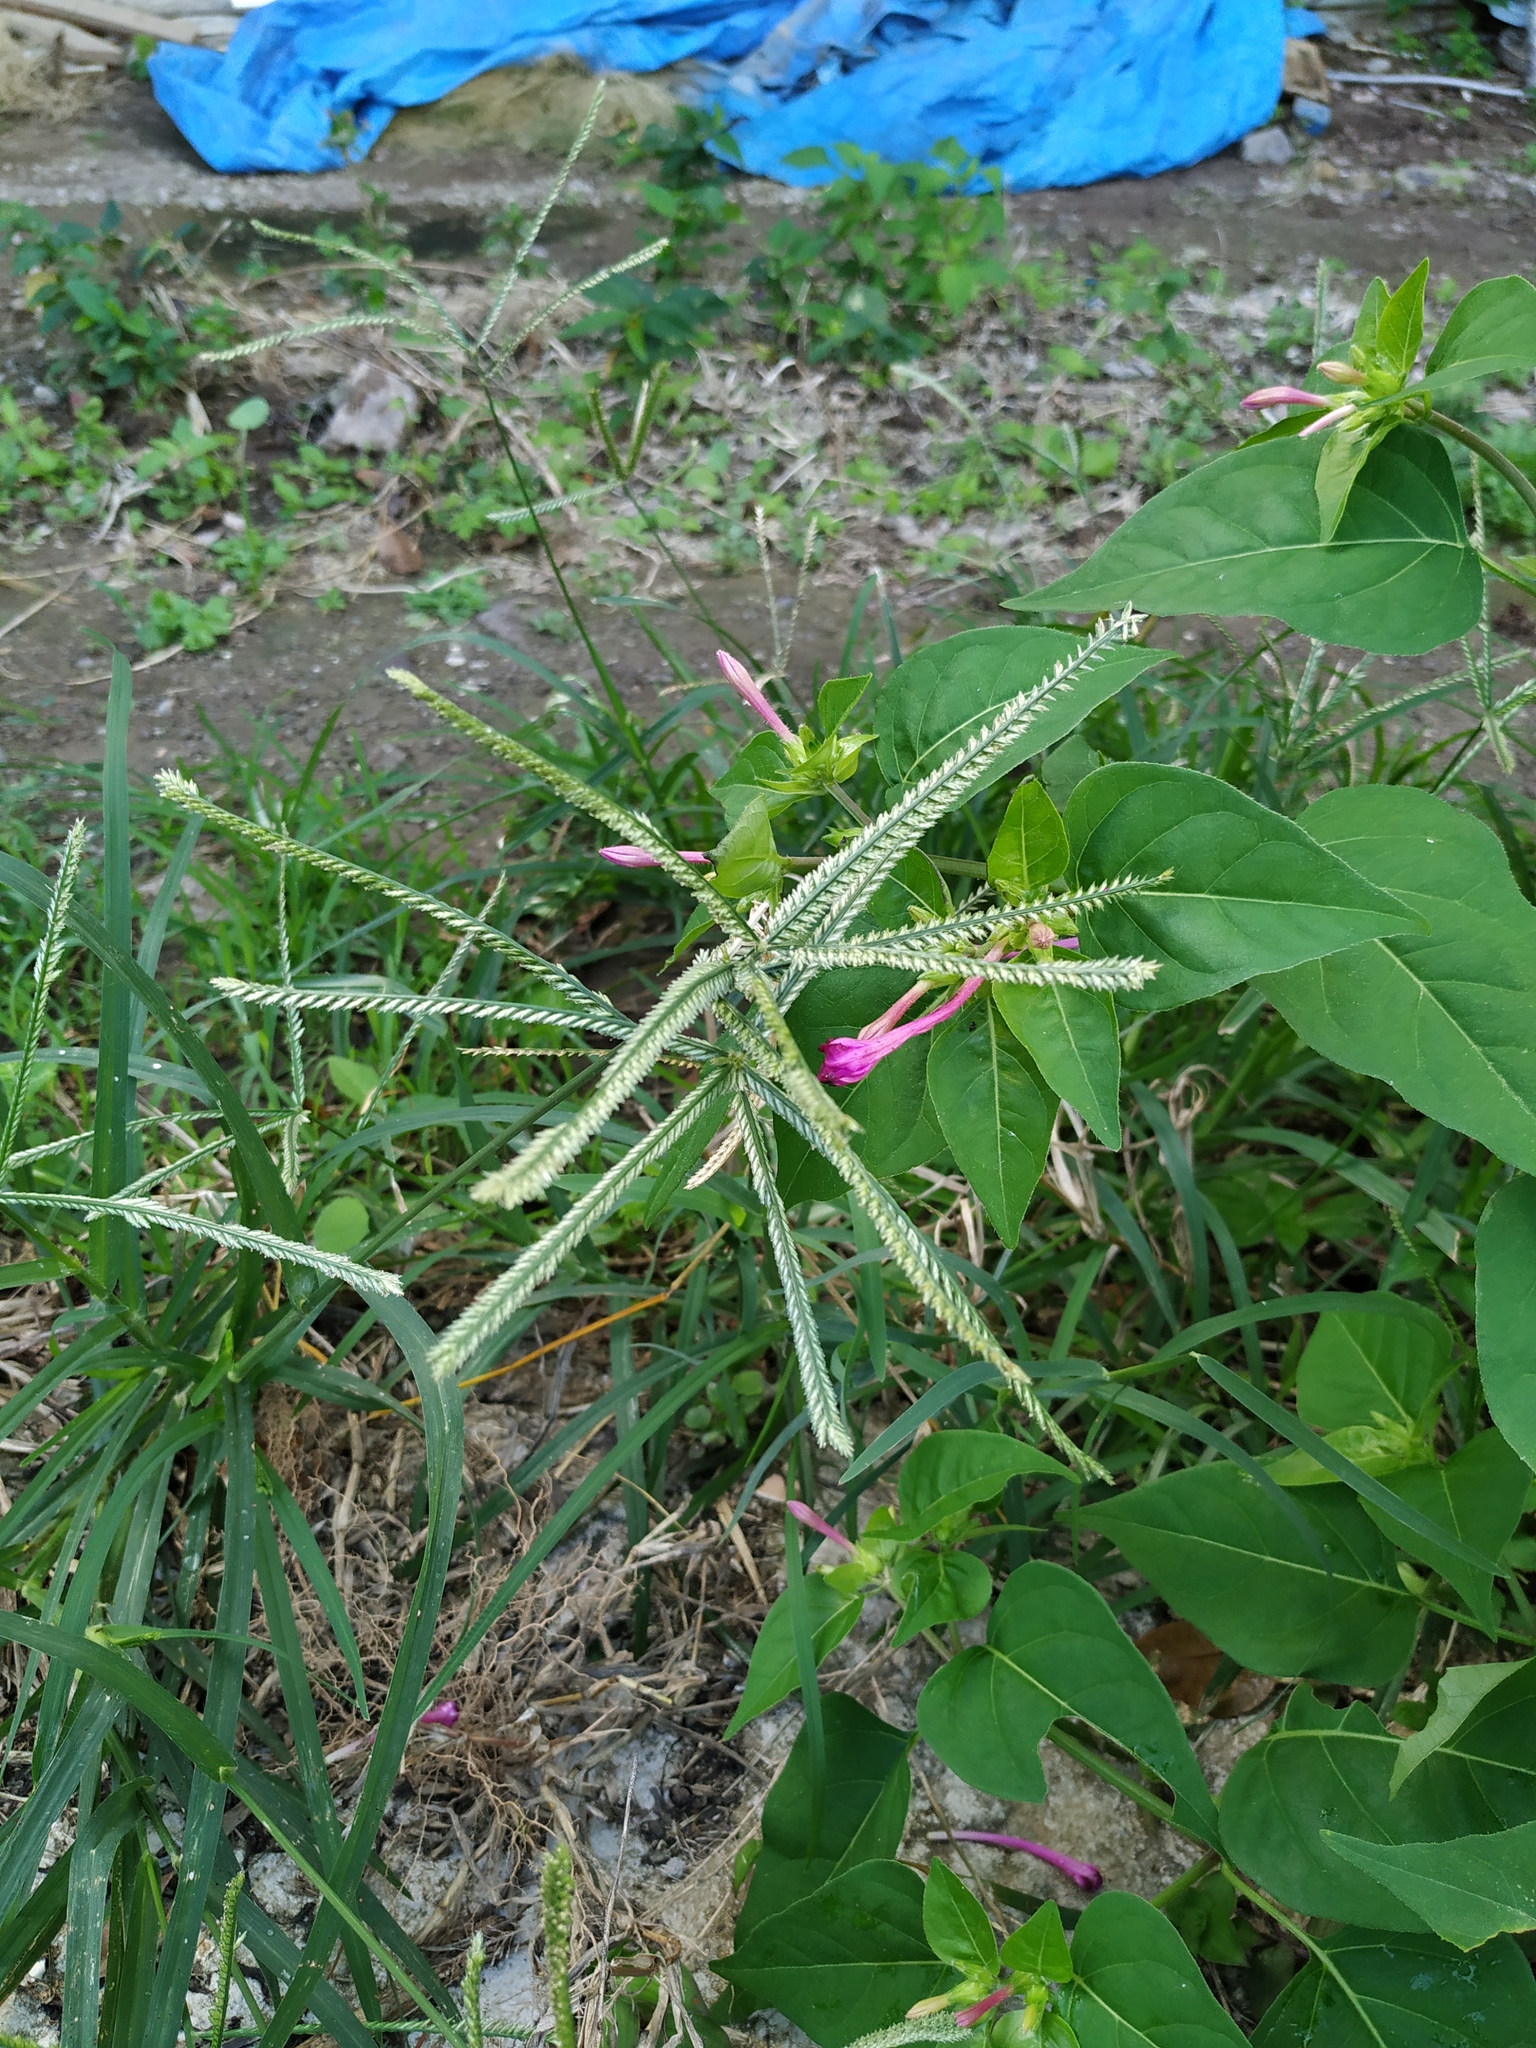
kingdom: Plantae
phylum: Tracheophyta
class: Liliopsida
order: Poales
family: Poaceae
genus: Eleusine
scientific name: Eleusine indica
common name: Yard-grass
